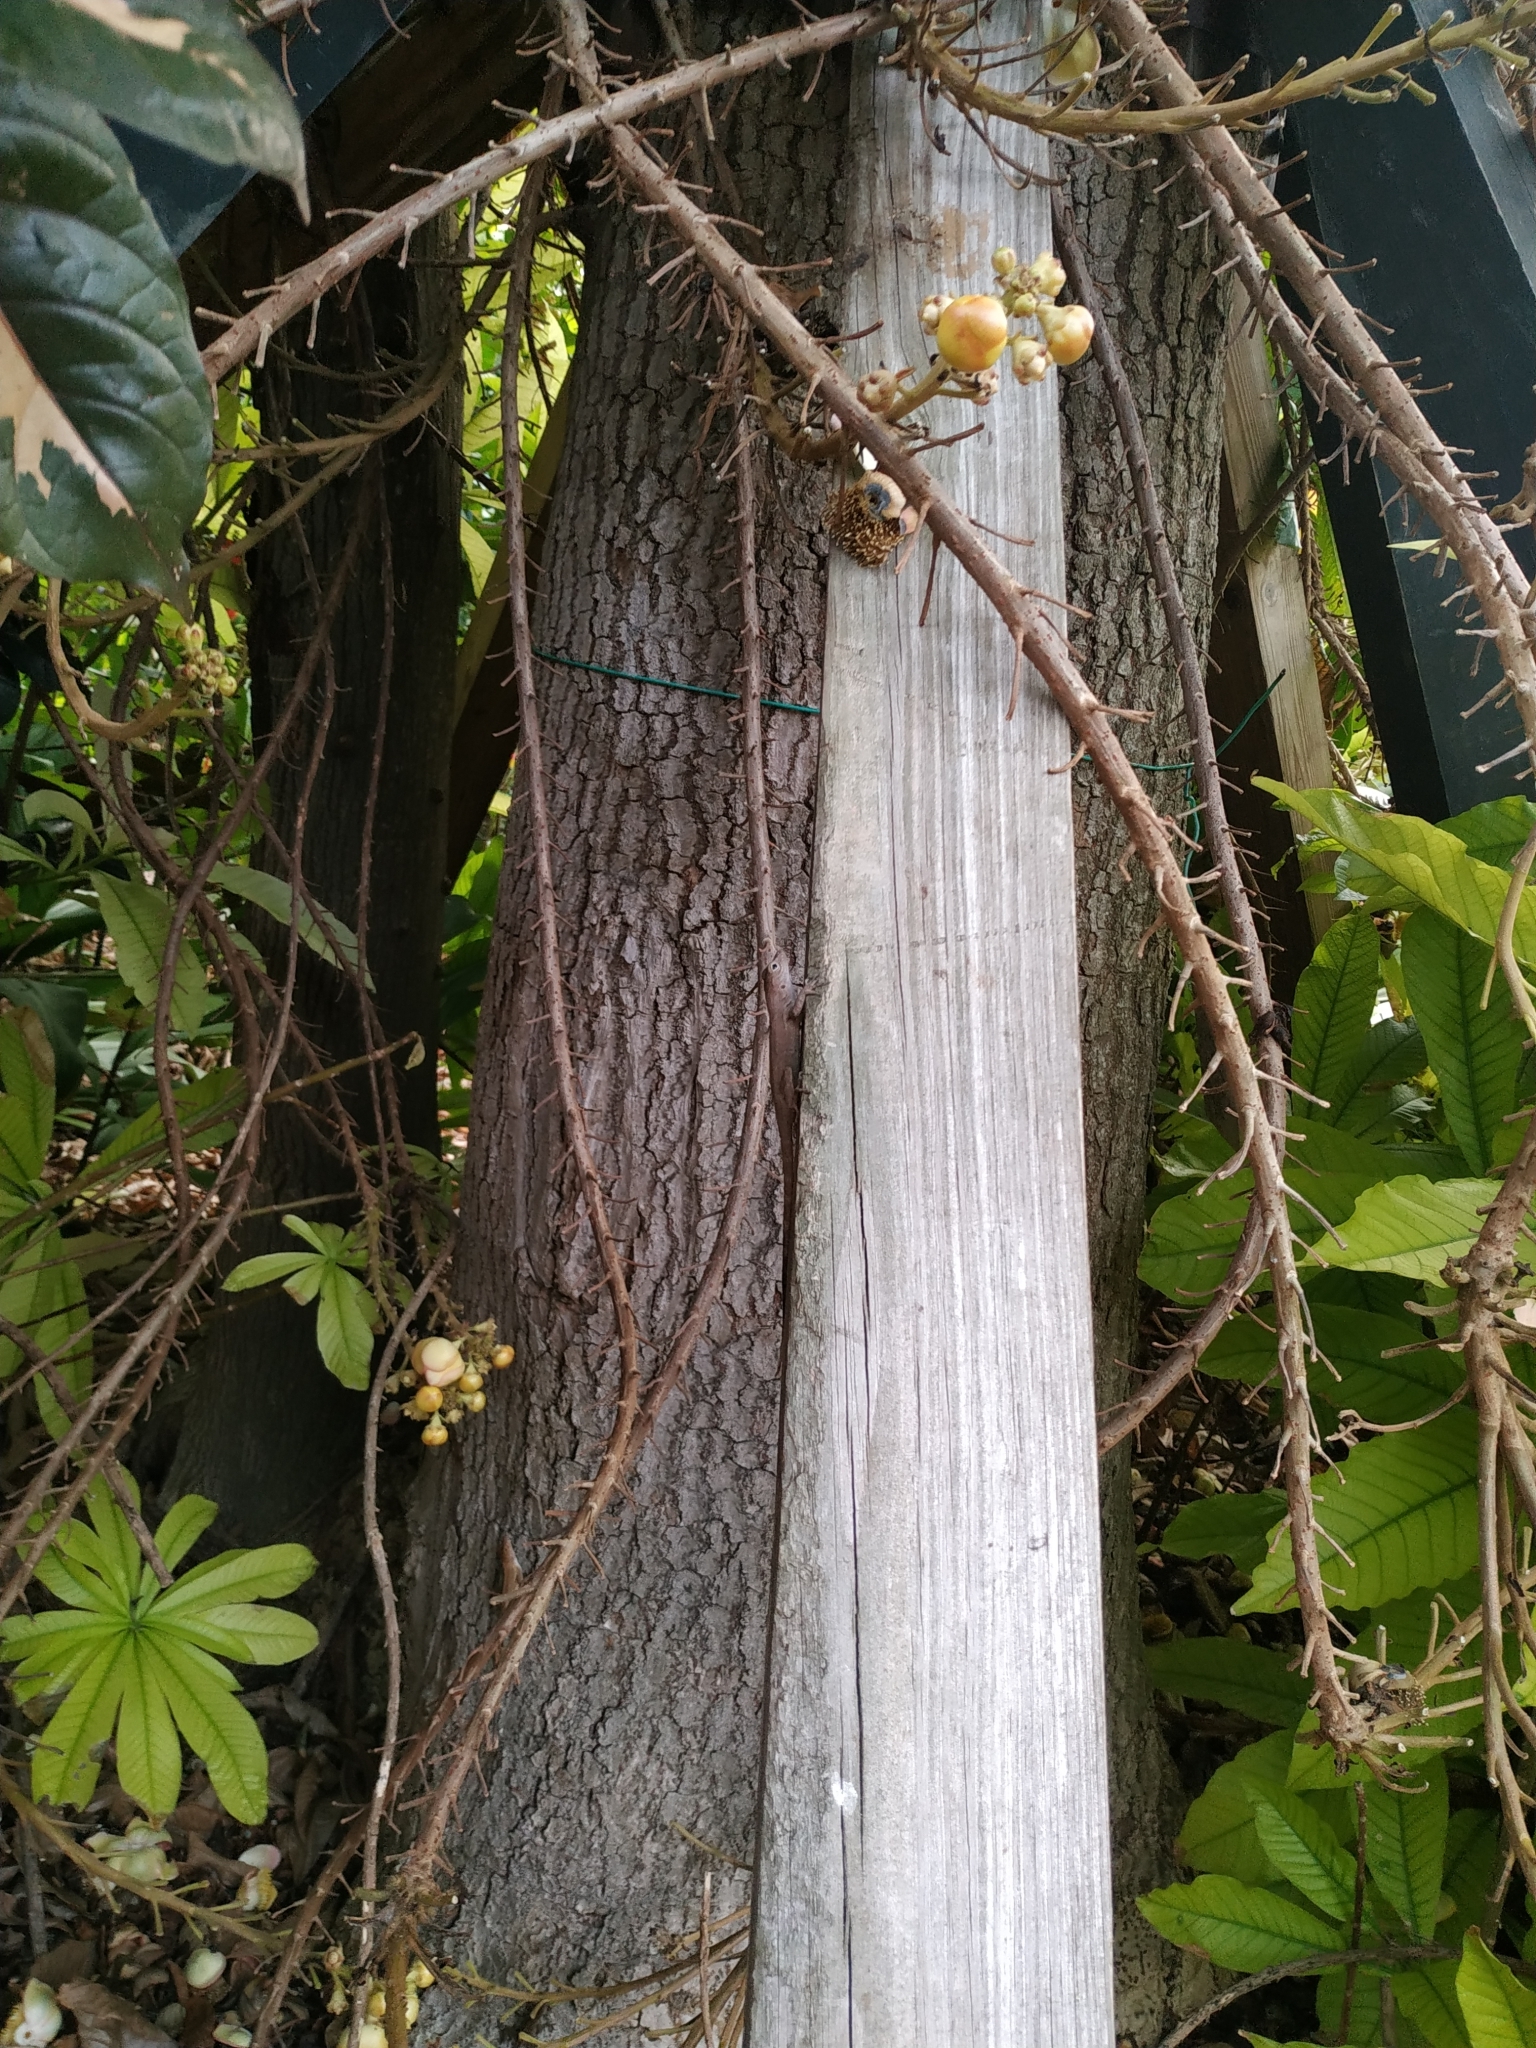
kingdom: Animalia
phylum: Chordata
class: Squamata
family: Dactyloidae
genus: Anolis
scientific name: Anolis cristatellus
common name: Crested anole
